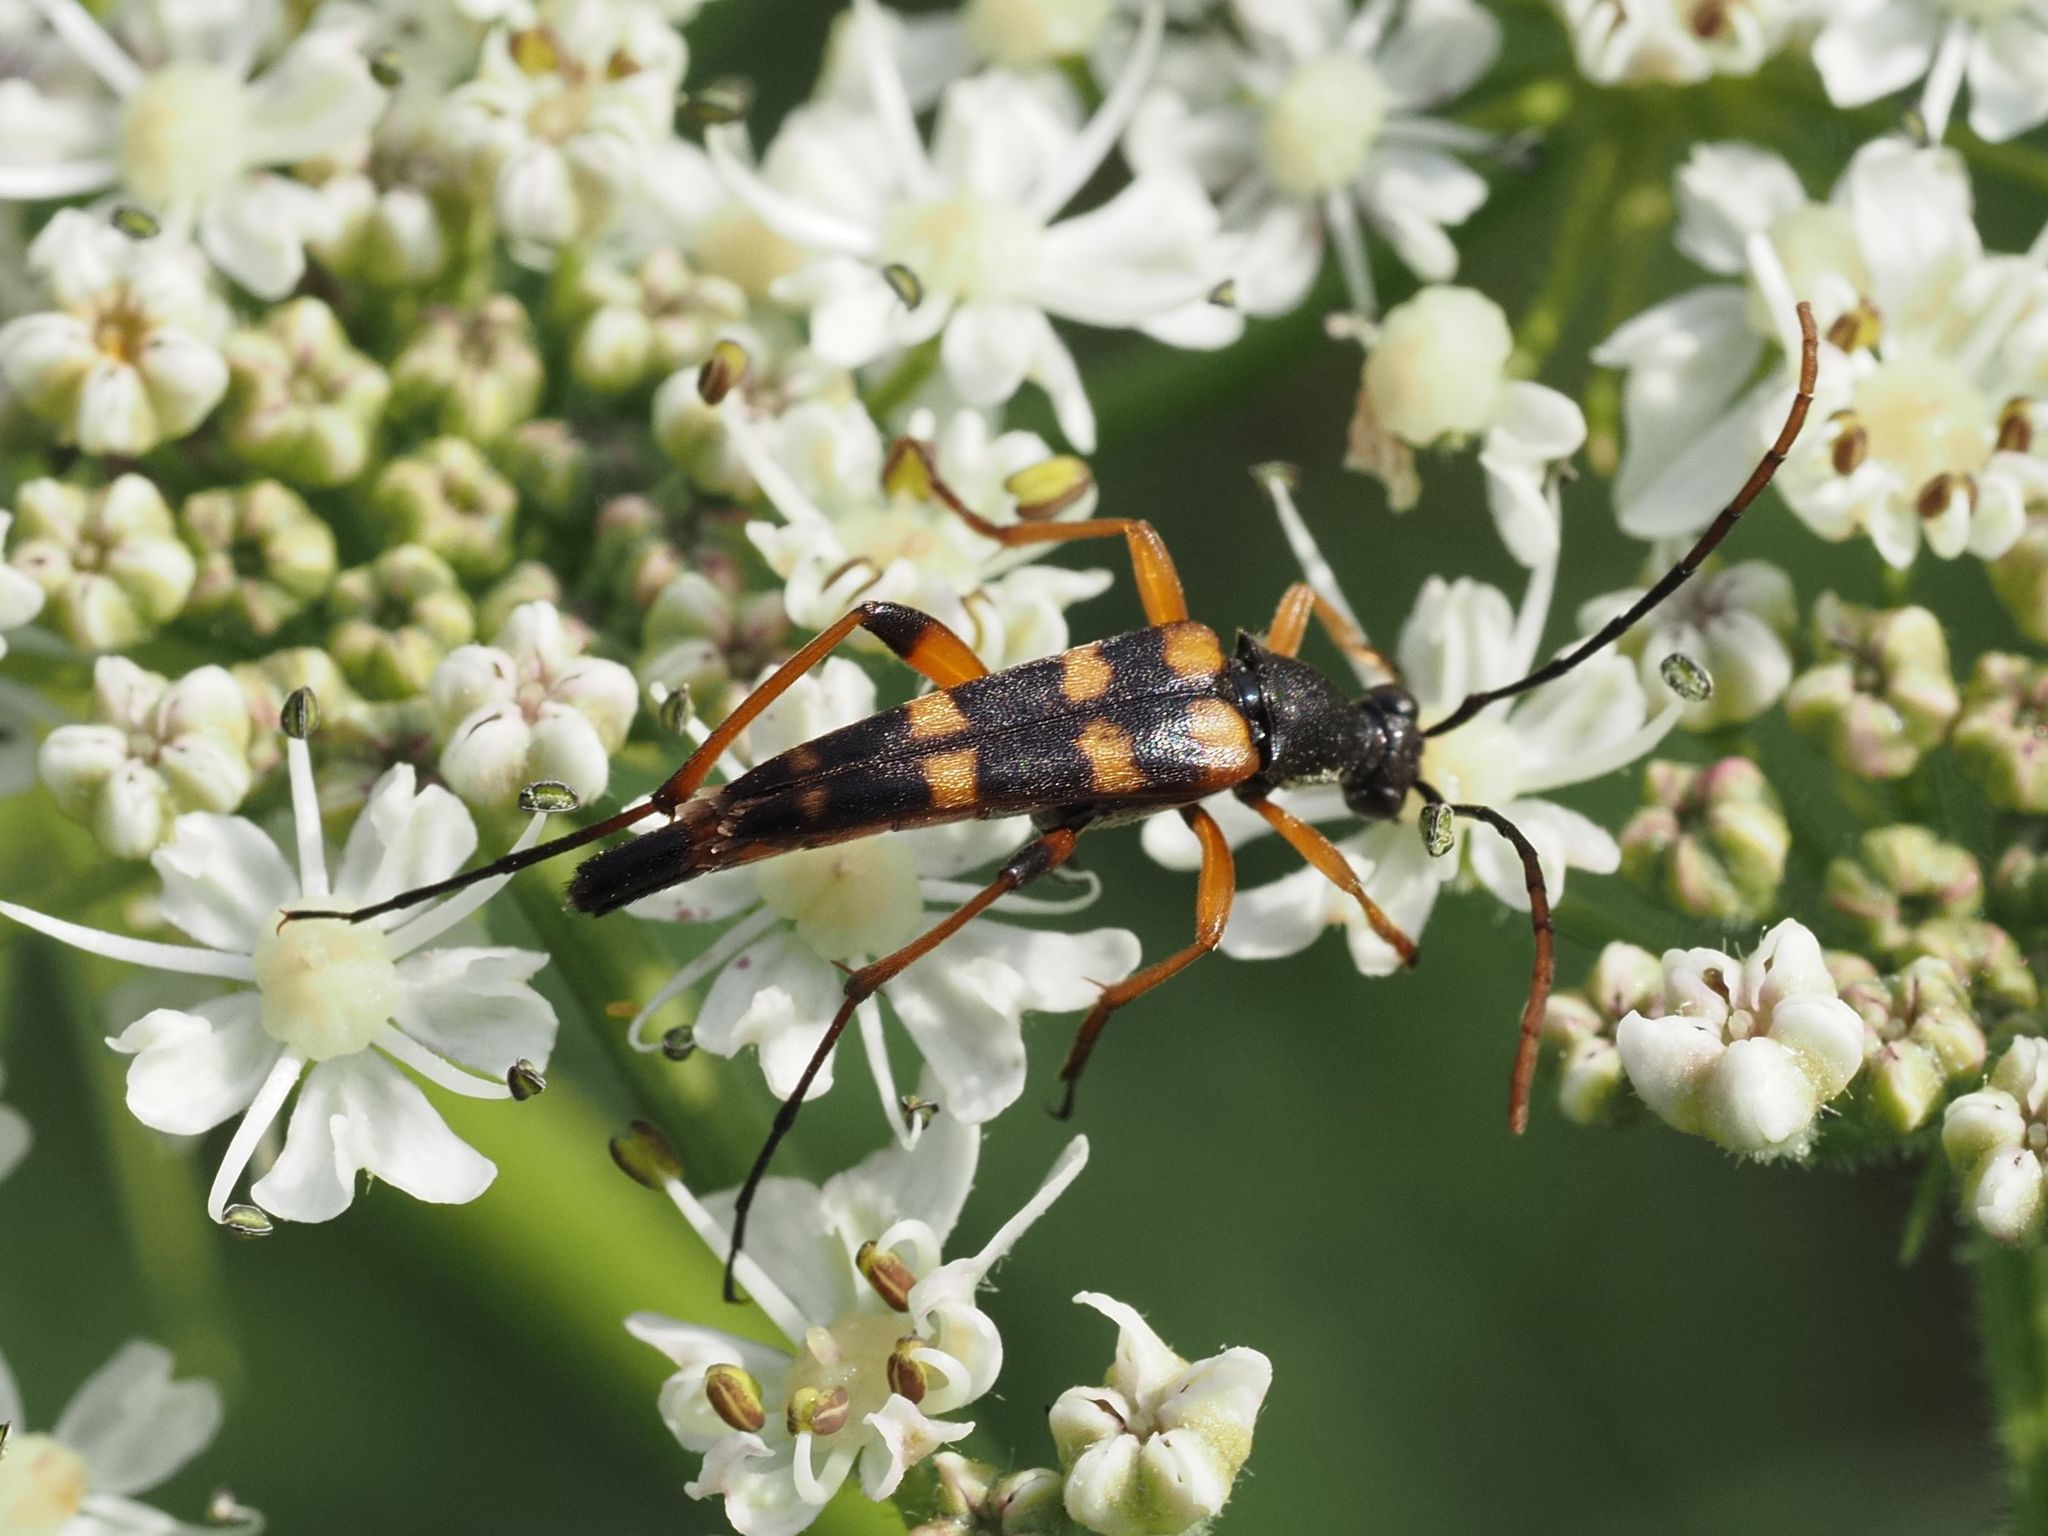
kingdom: Animalia
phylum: Arthropoda
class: Insecta
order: Coleoptera
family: Cerambycidae
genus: Strangalia
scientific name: Strangalia attenuata
